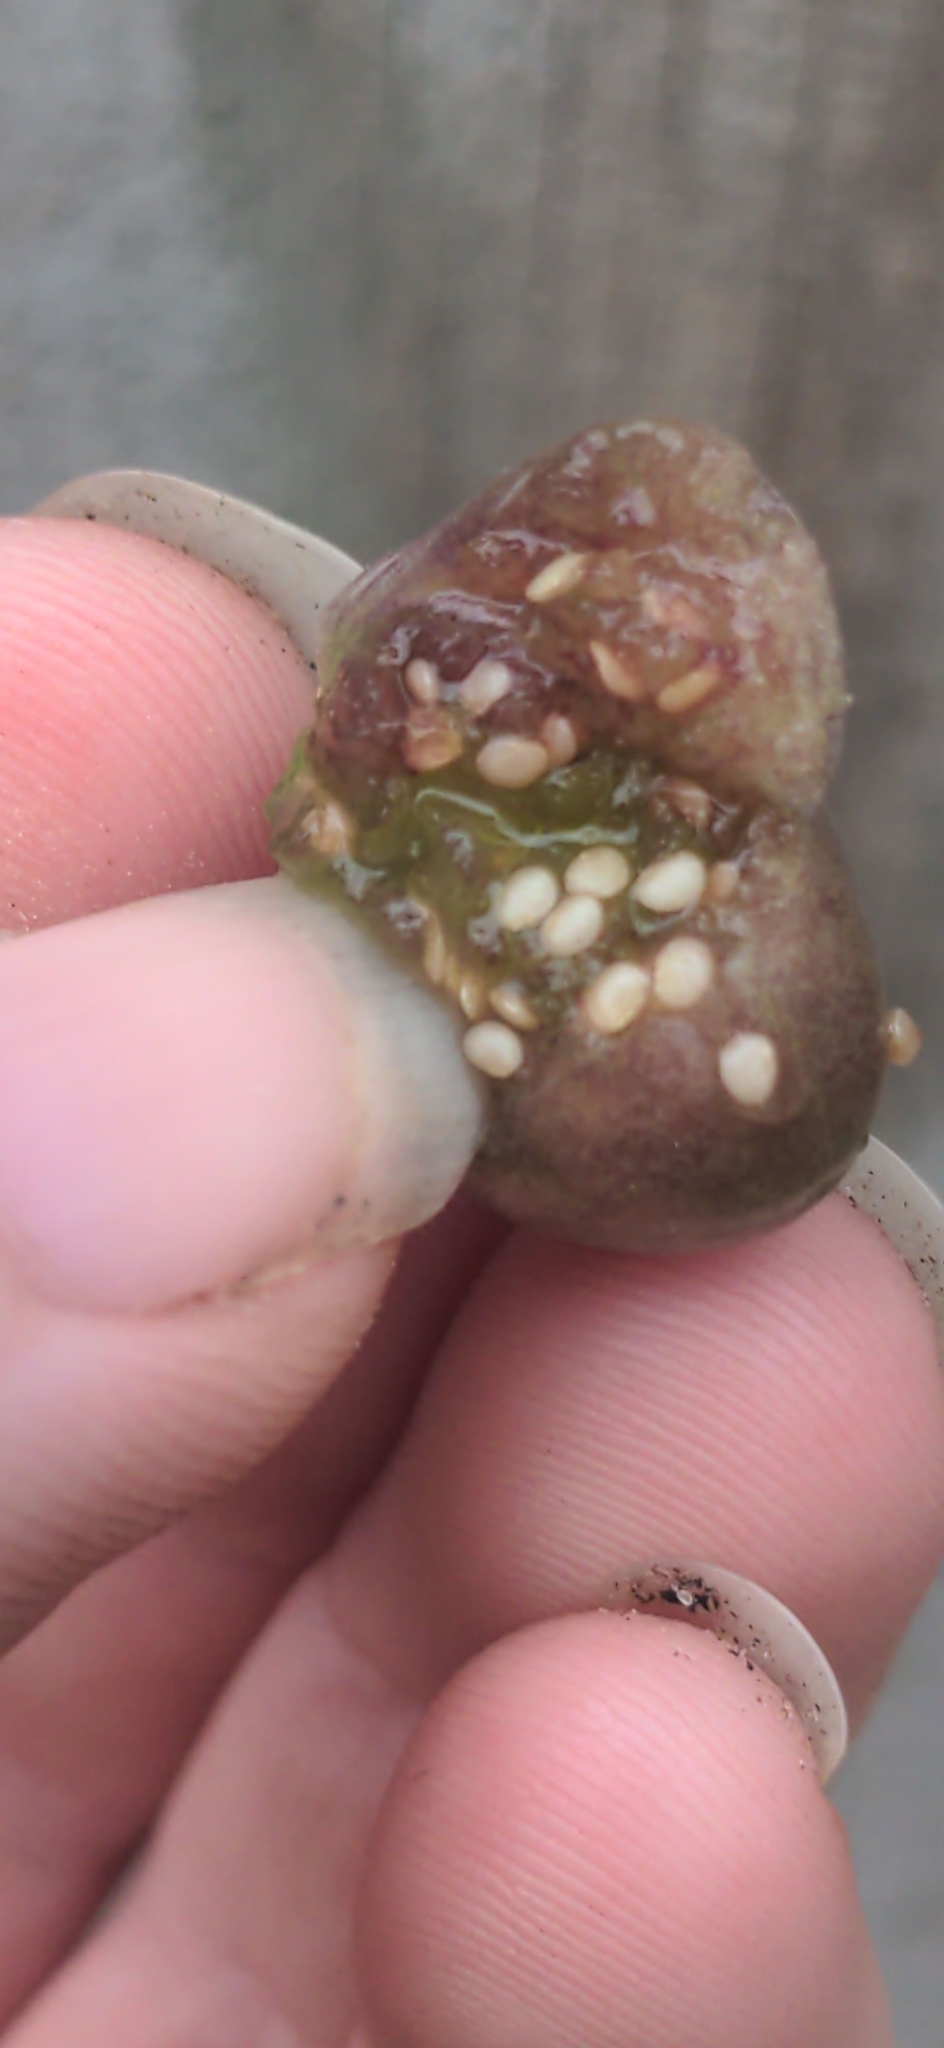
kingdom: Plantae
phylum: Tracheophyta
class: Magnoliopsida
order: Solanales
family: Solanaceae
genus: Physalis
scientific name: Physalis cordata
